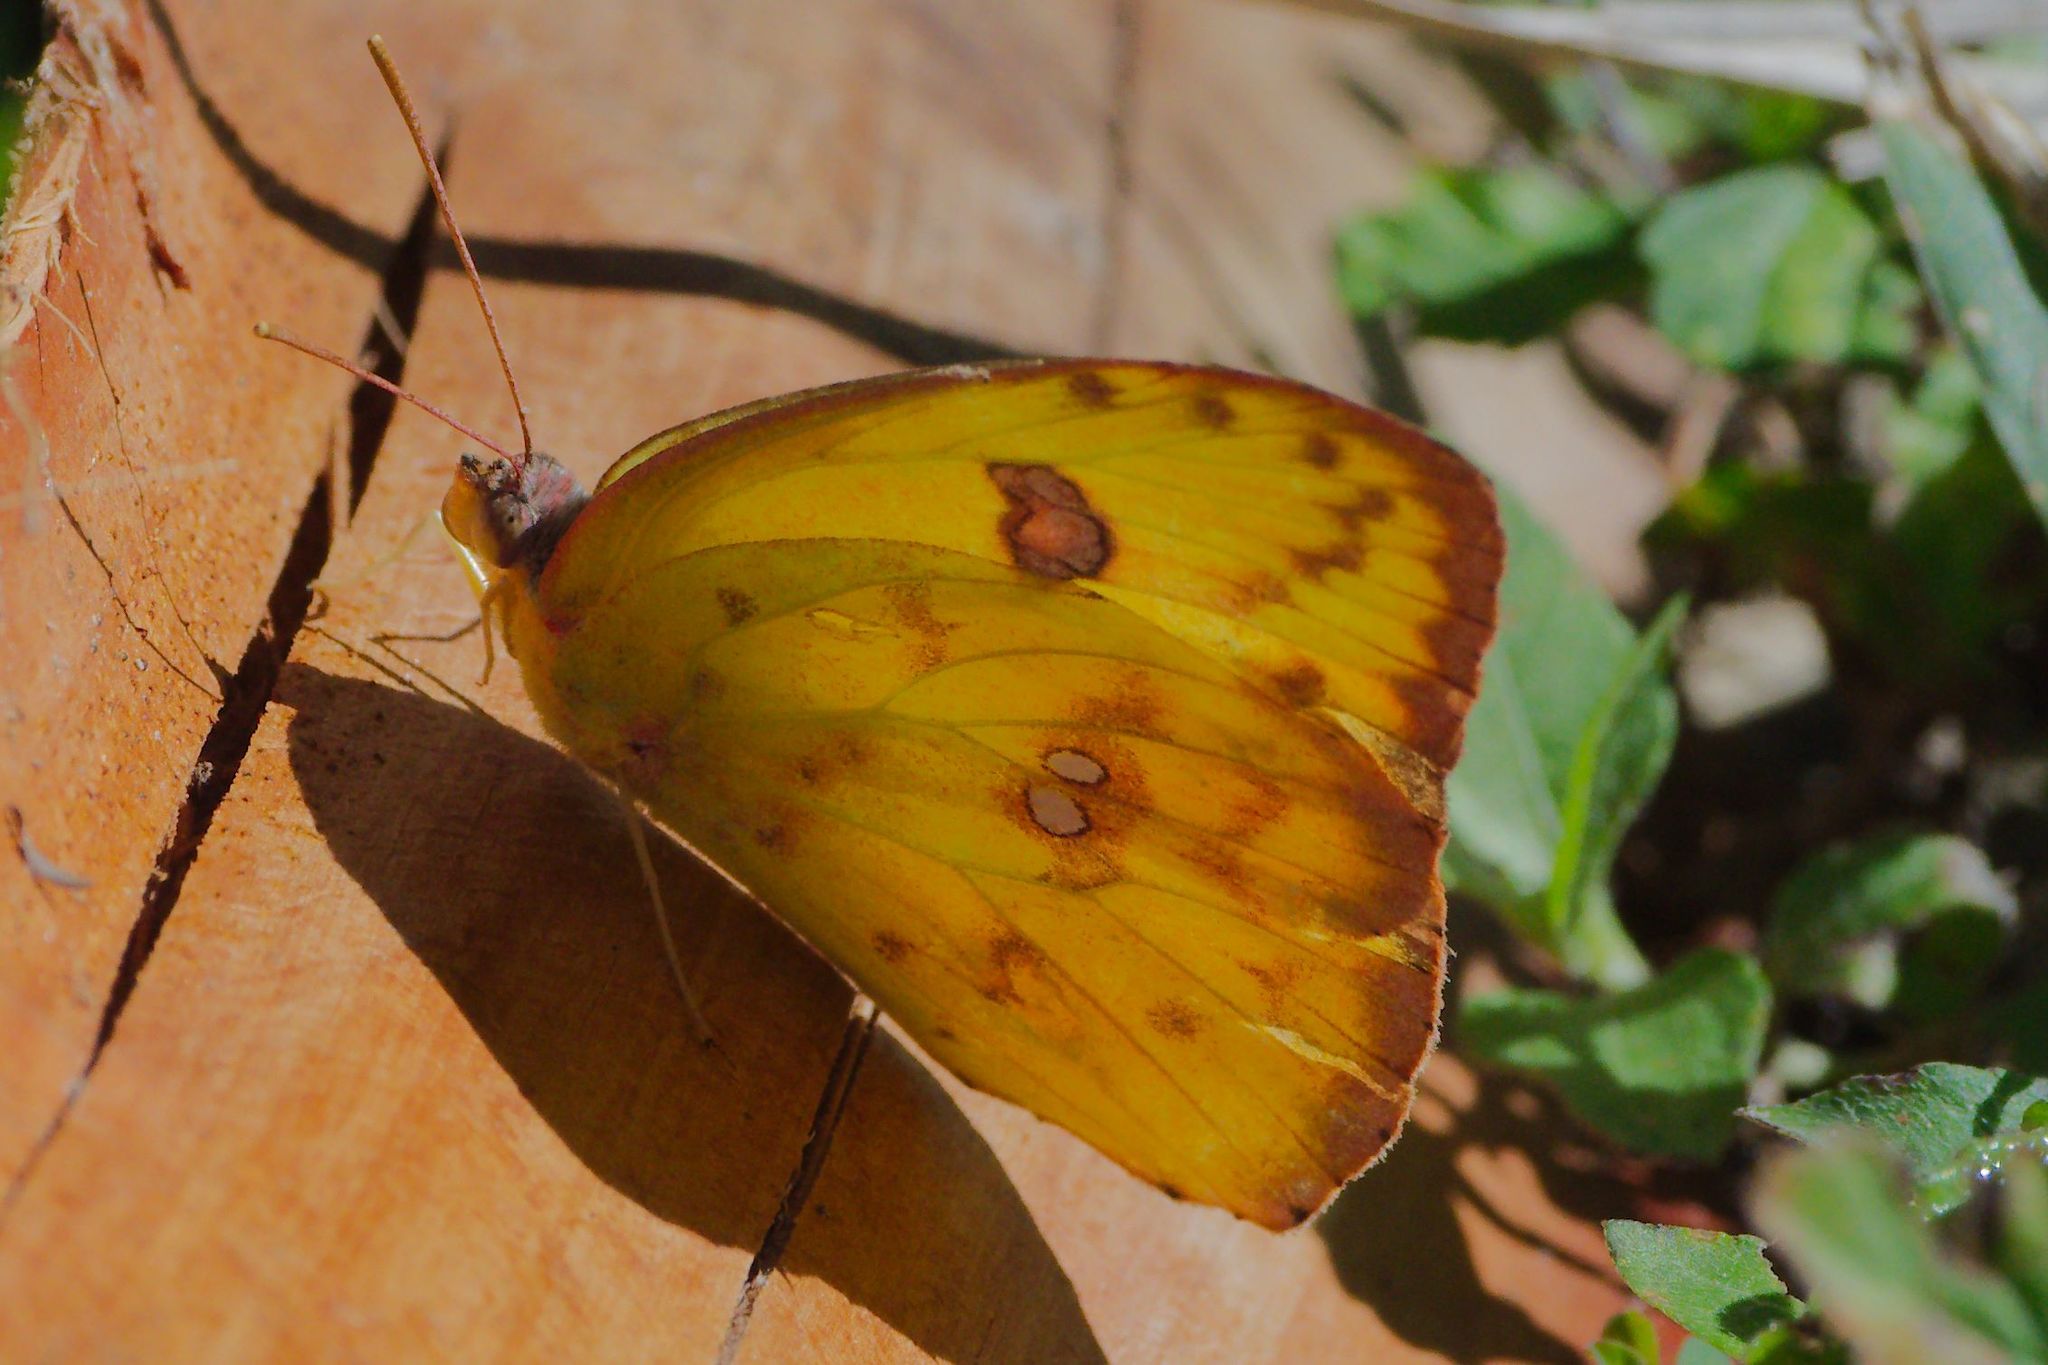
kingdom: Animalia
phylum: Arthropoda
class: Insecta
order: Lepidoptera
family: Pieridae
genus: Phoebis
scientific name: Phoebis sennae
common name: Cloudless sulphur
